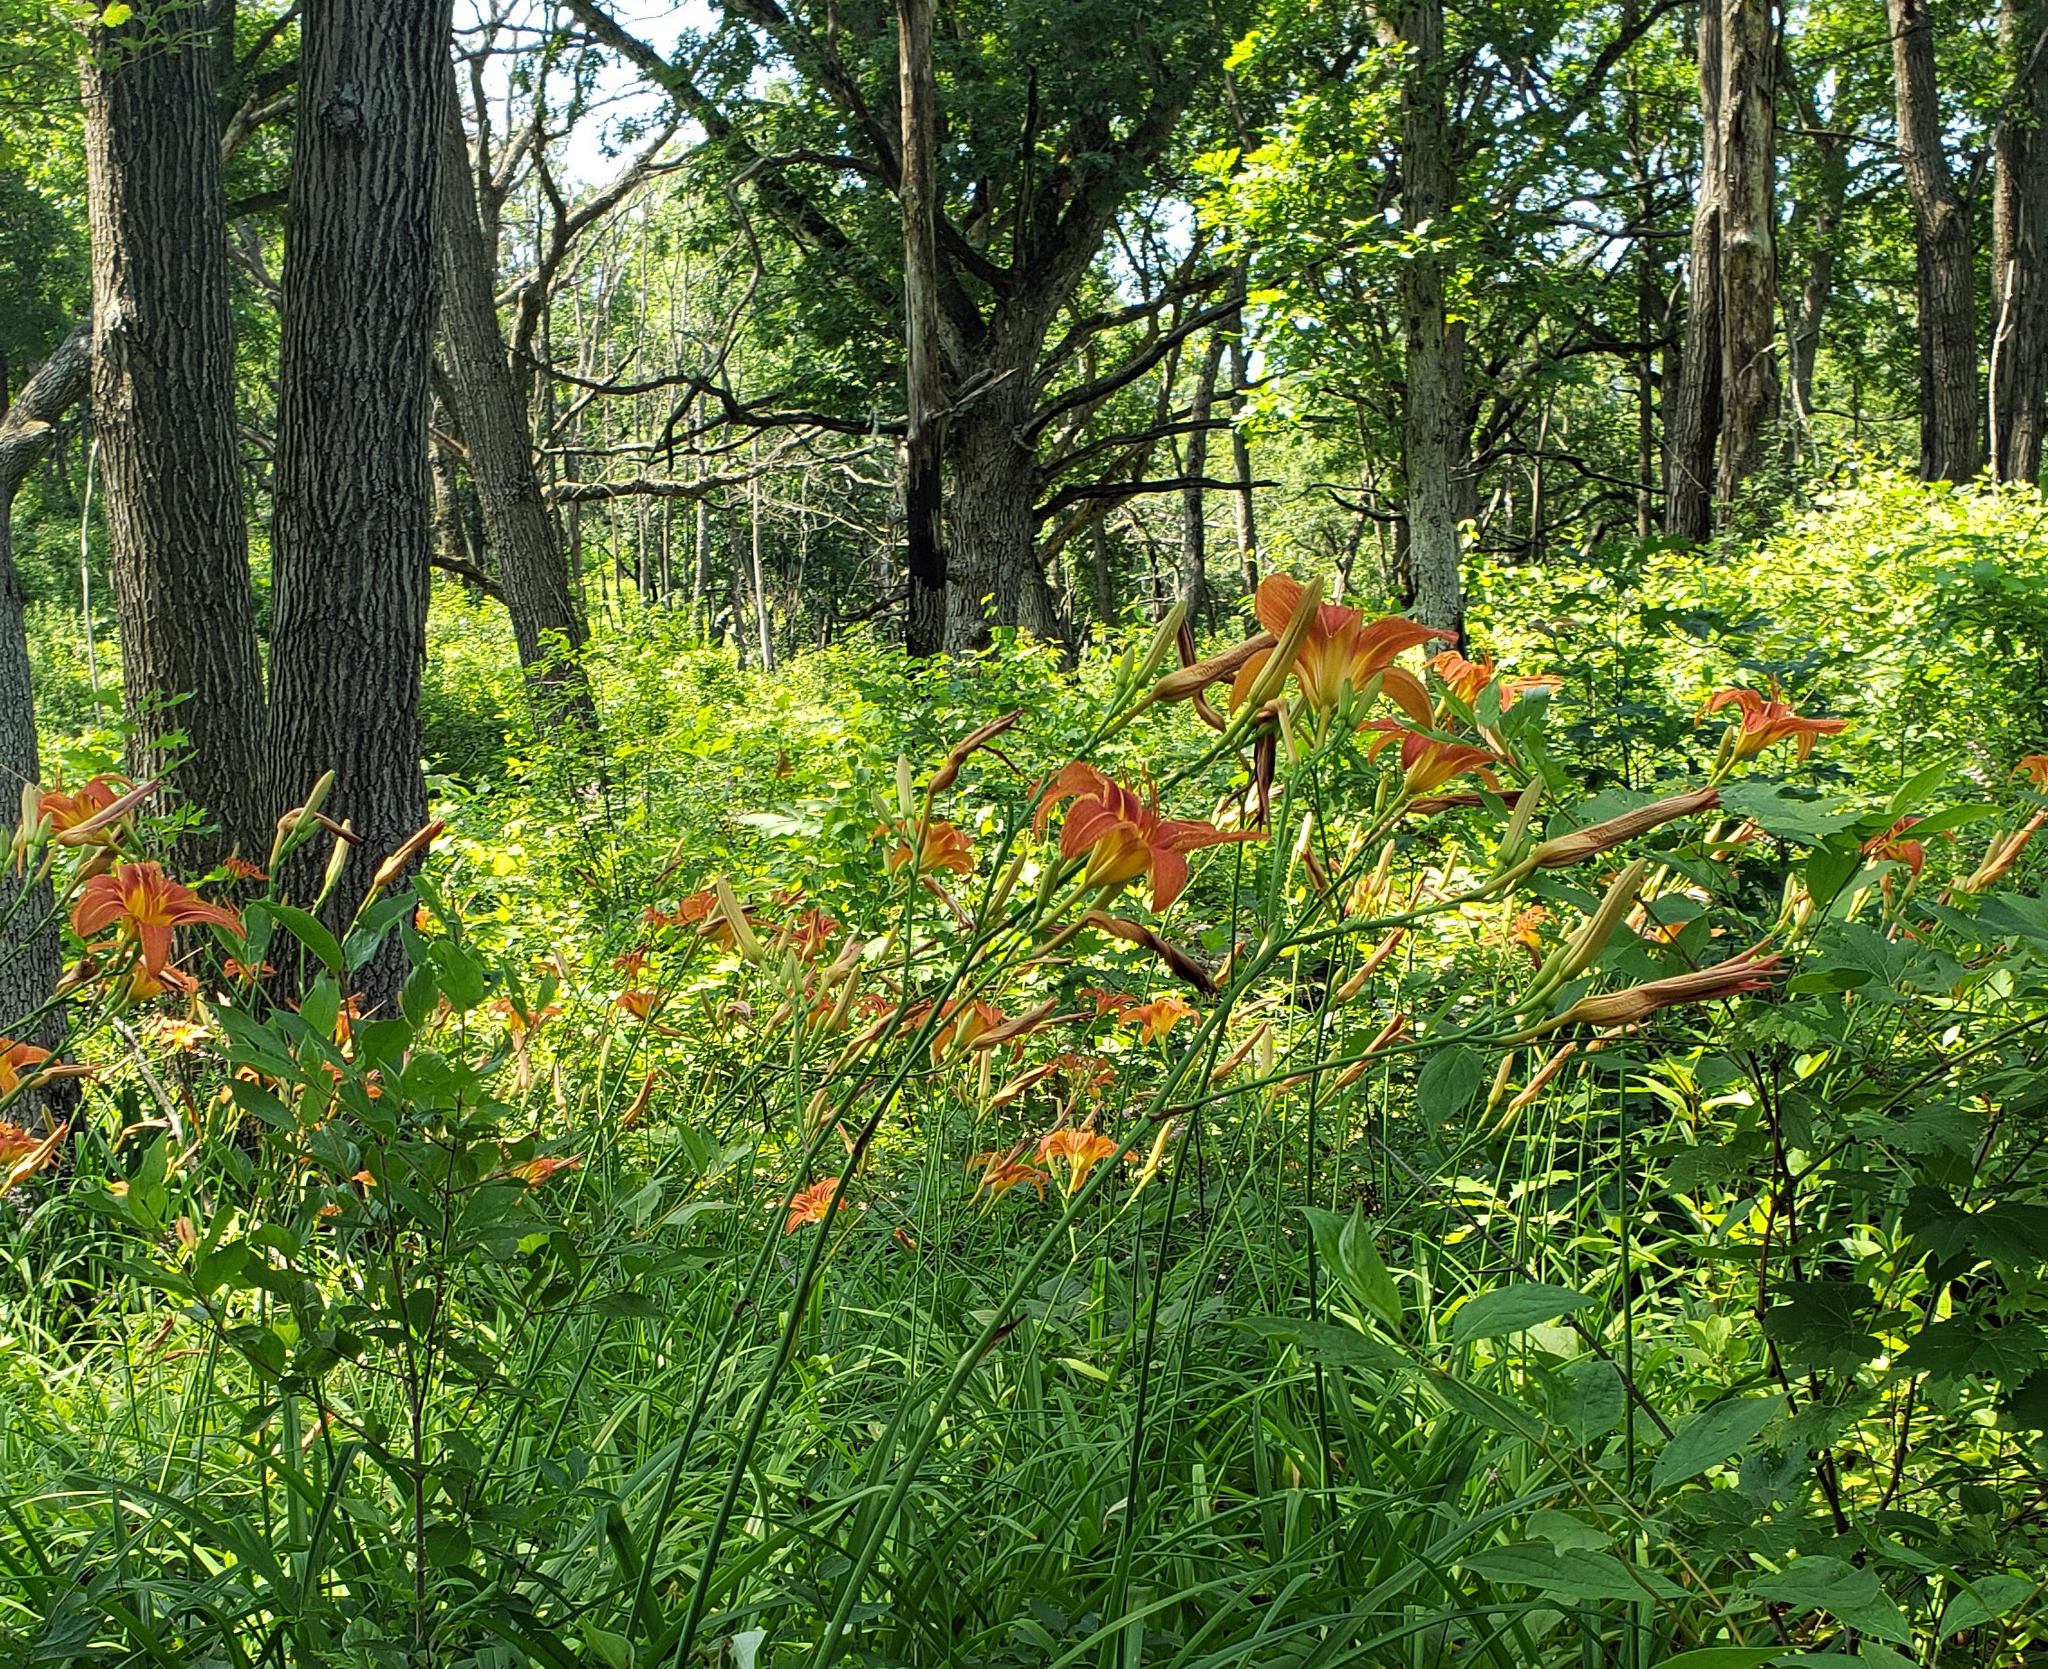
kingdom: Plantae
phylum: Tracheophyta
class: Liliopsida
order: Asparagales
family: Asphodelaceae
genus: Hemerocallis
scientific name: Hemerocallis fulva
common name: Orange day-lily
